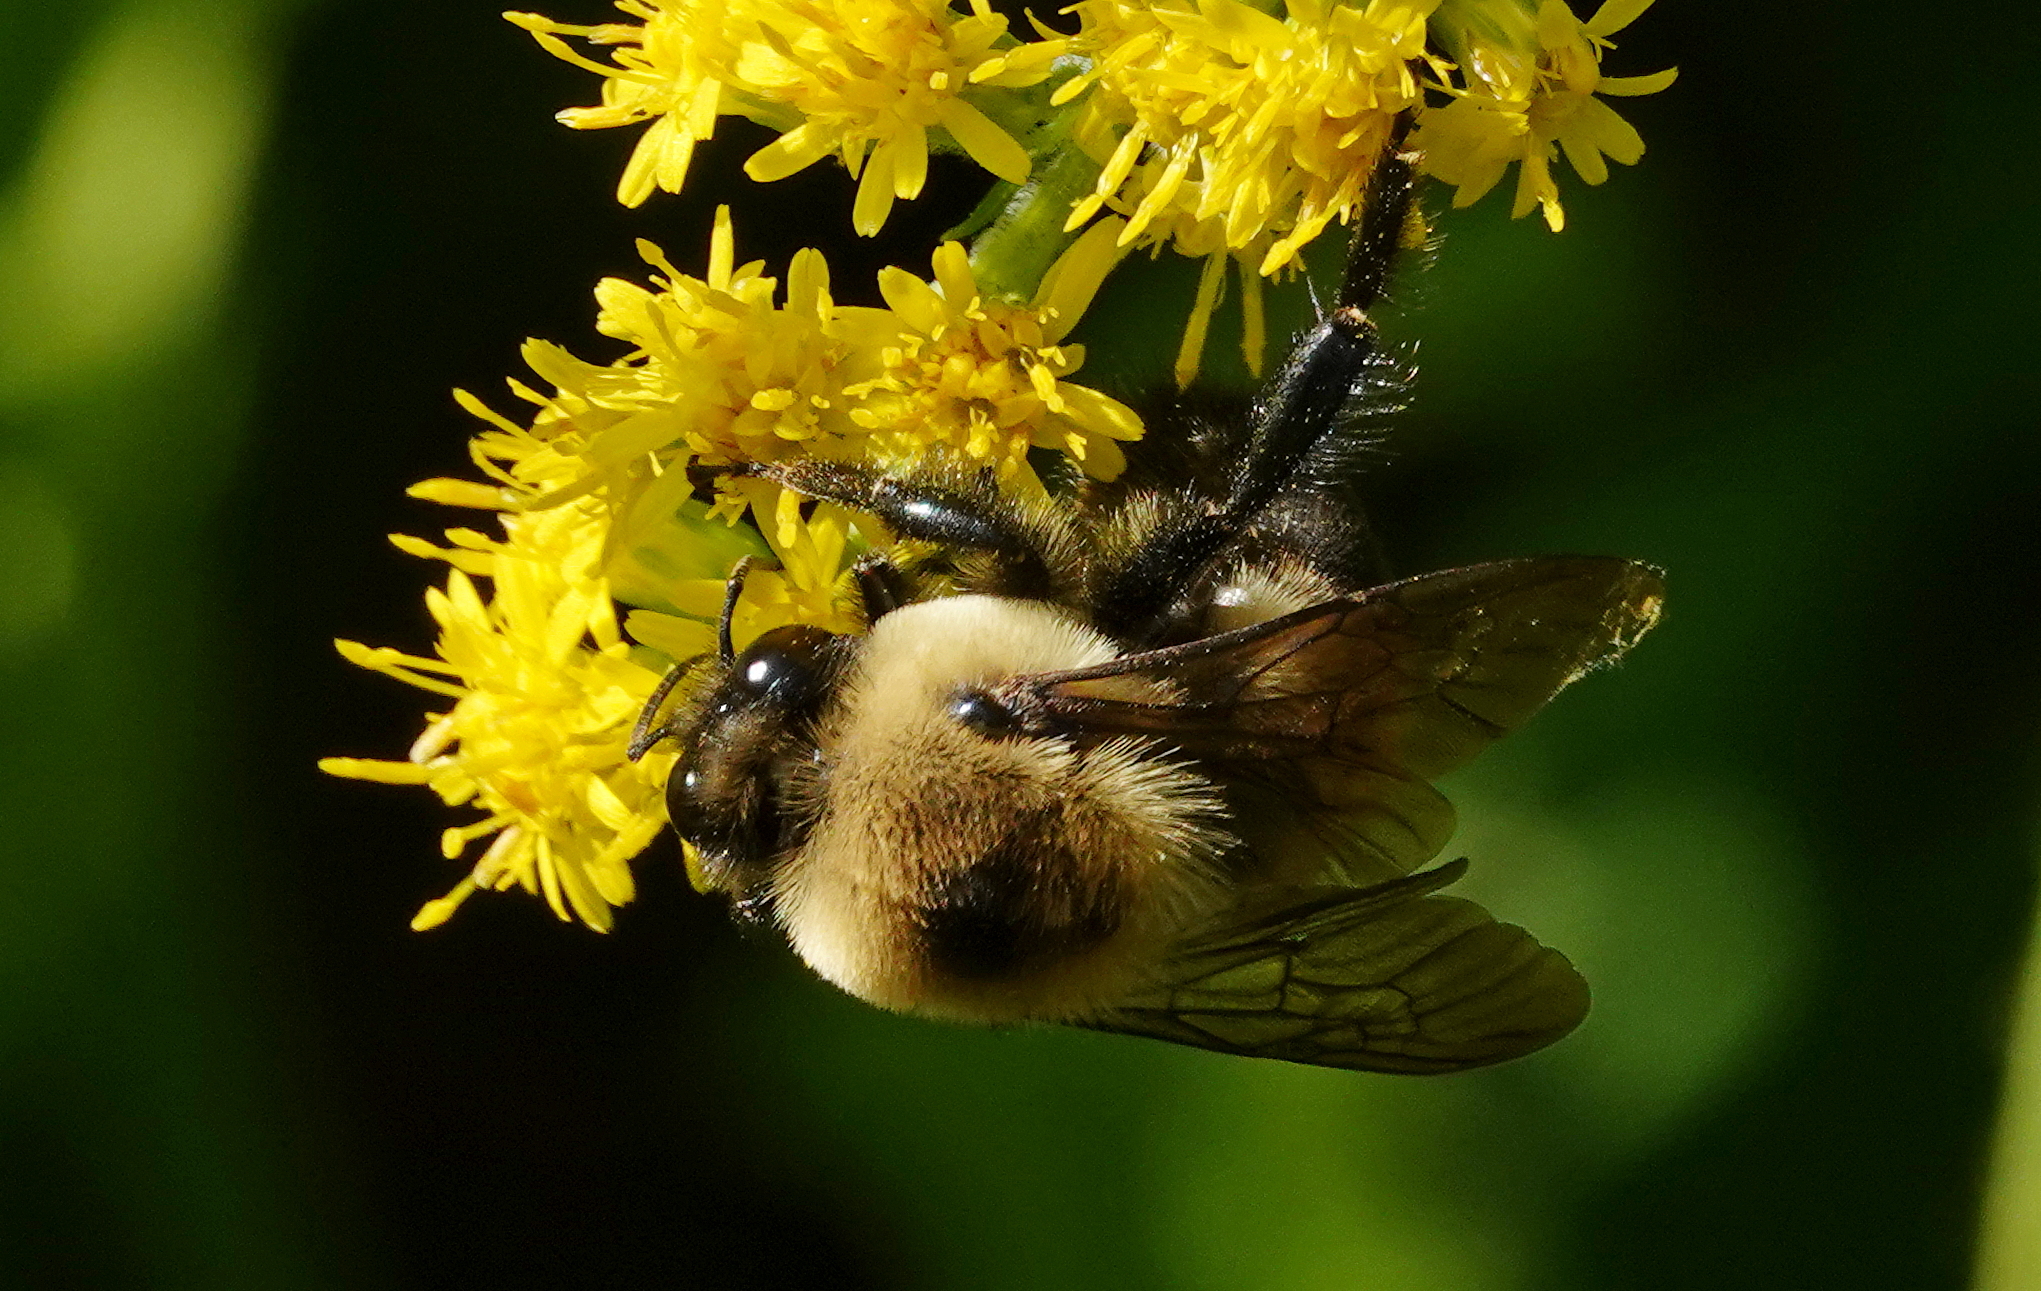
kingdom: Animalia
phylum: Arthropoda
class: Insecta
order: Hymenoptera
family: Apidae
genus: Bombus
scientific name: Bombus griseocollis
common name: Brown-belted bumble bee
